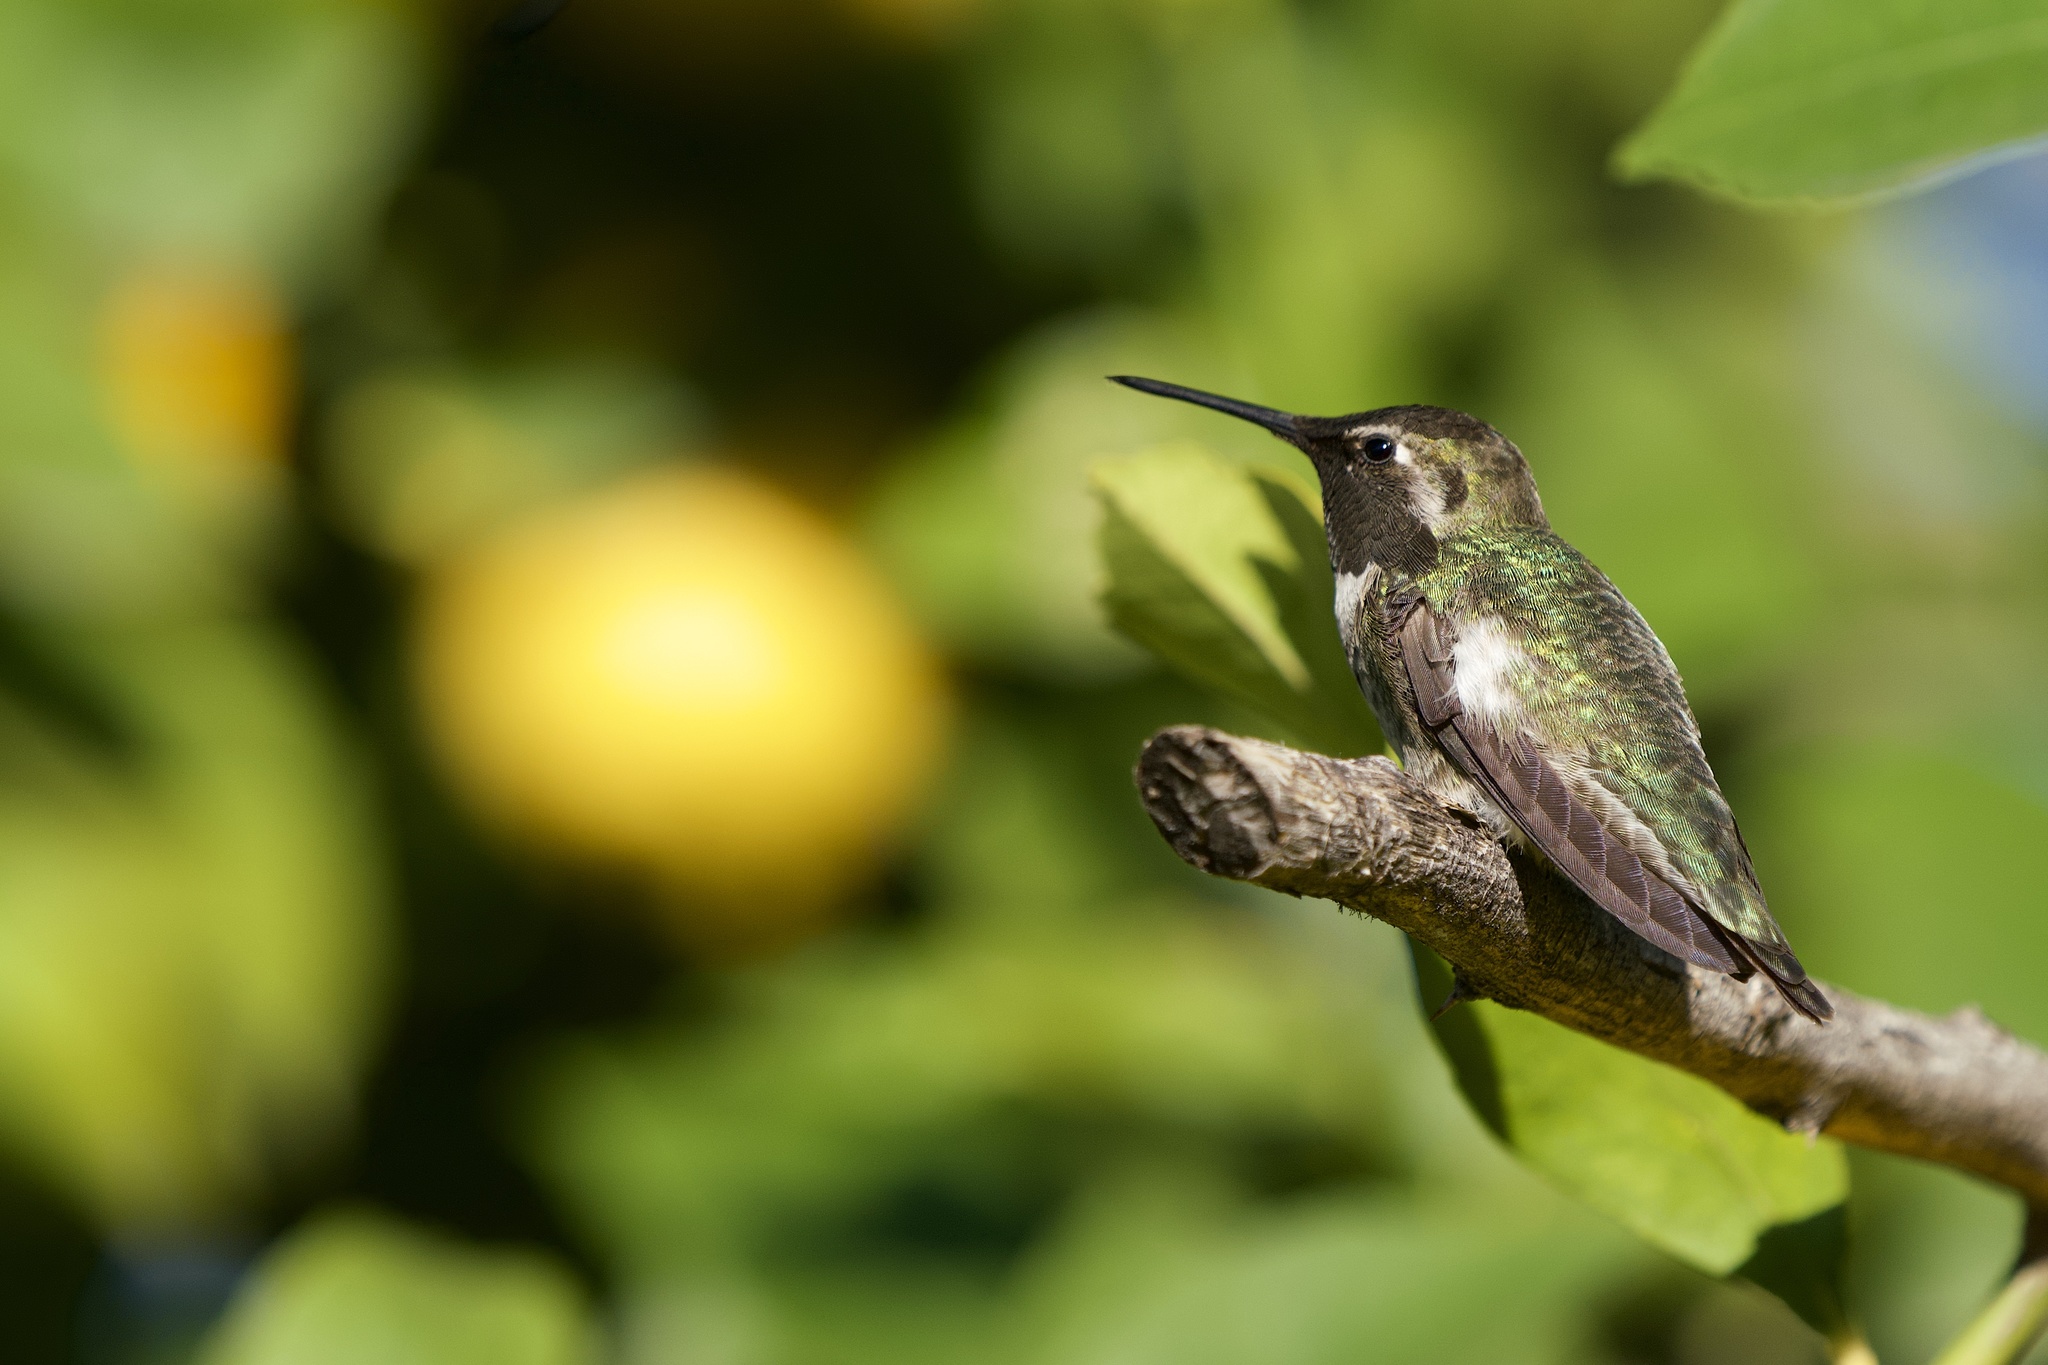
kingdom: Animalia
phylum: Chordata
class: Aves
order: Apodiformes
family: Trochilidae
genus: Calypte
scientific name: Calypte anna
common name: Anna's hummingbird
